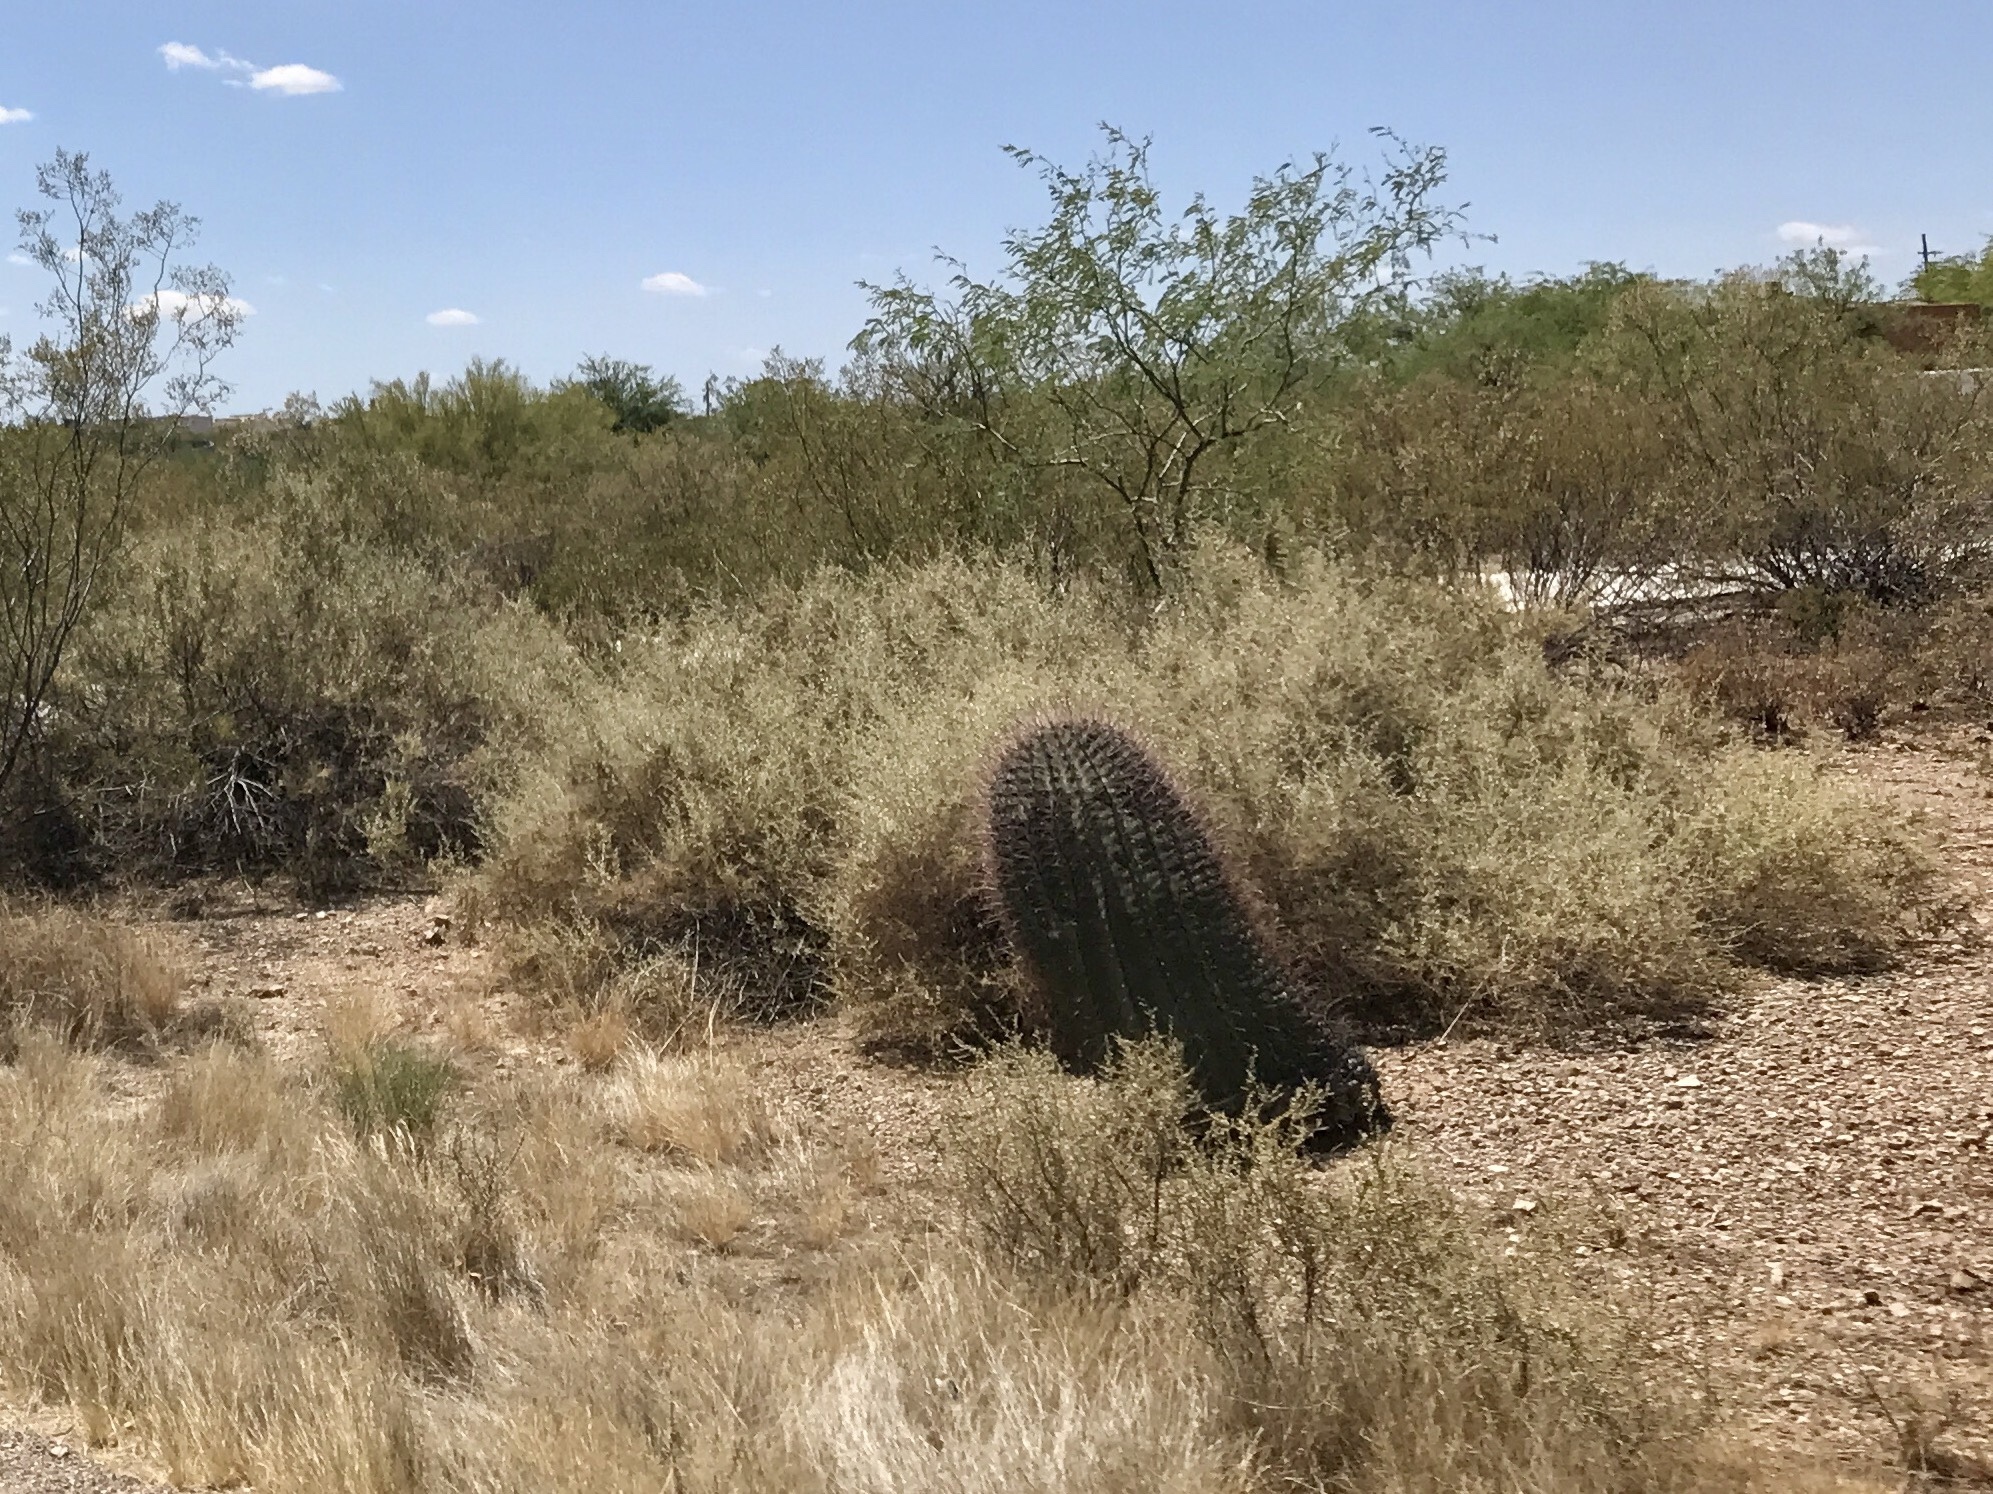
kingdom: Plantae
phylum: Tracheophyta
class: Magnoliopsida
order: Caryophyllales
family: Cactaceae
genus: Ferocactus
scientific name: Ferocactus wislizeni
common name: Candy barrel cactus
